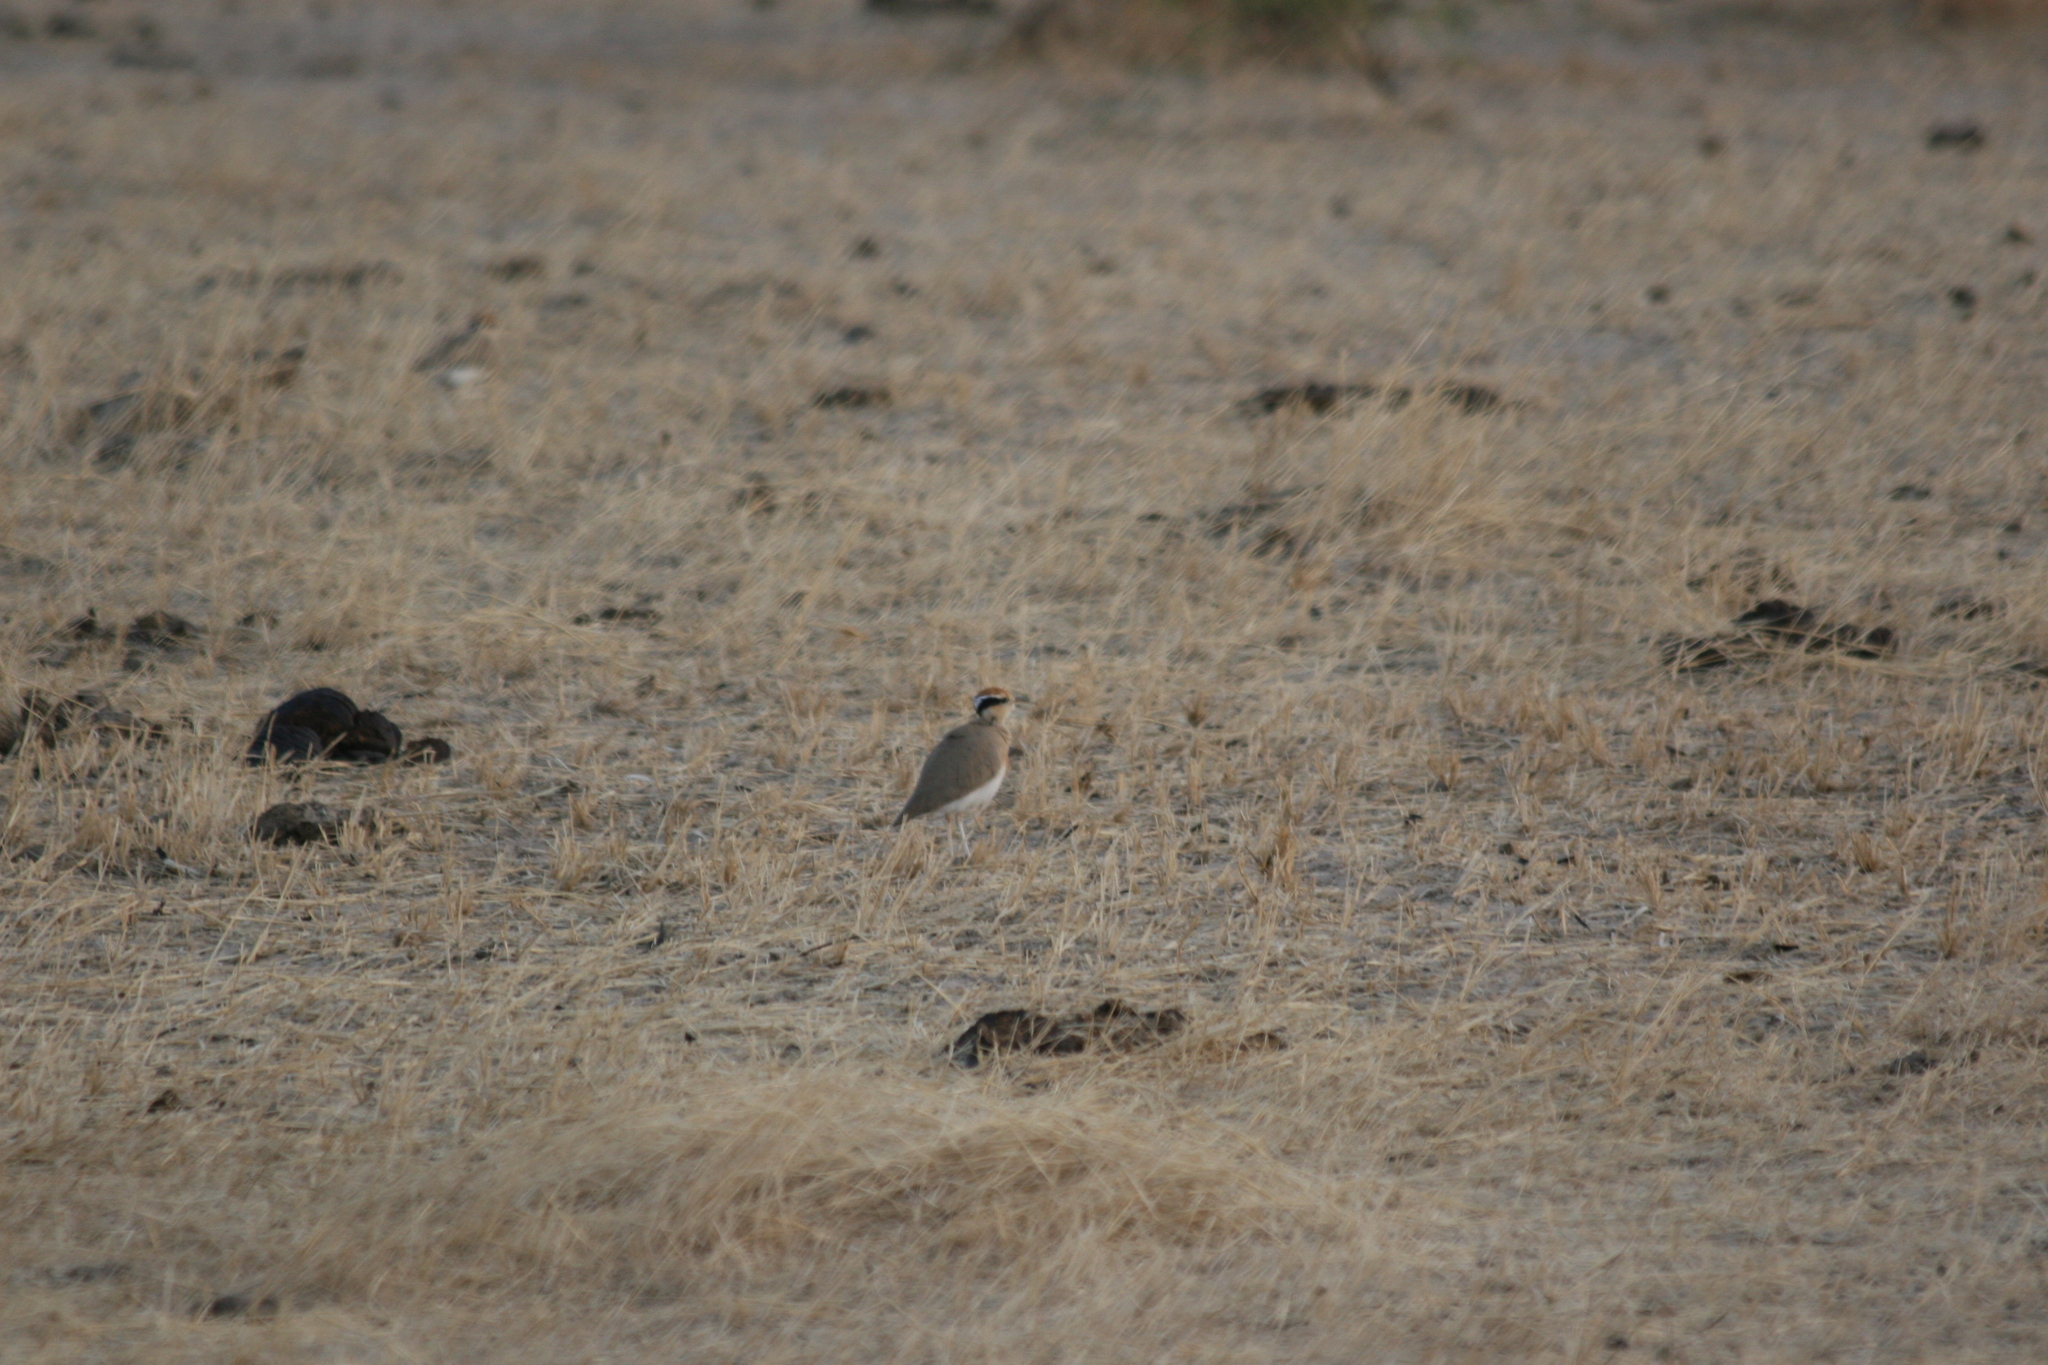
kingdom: Animalia
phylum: Chordata
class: Aves
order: Charadriiformes
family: Glareolidae
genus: Cursorius
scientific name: Cursorius temminckii
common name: Temminck's courser
